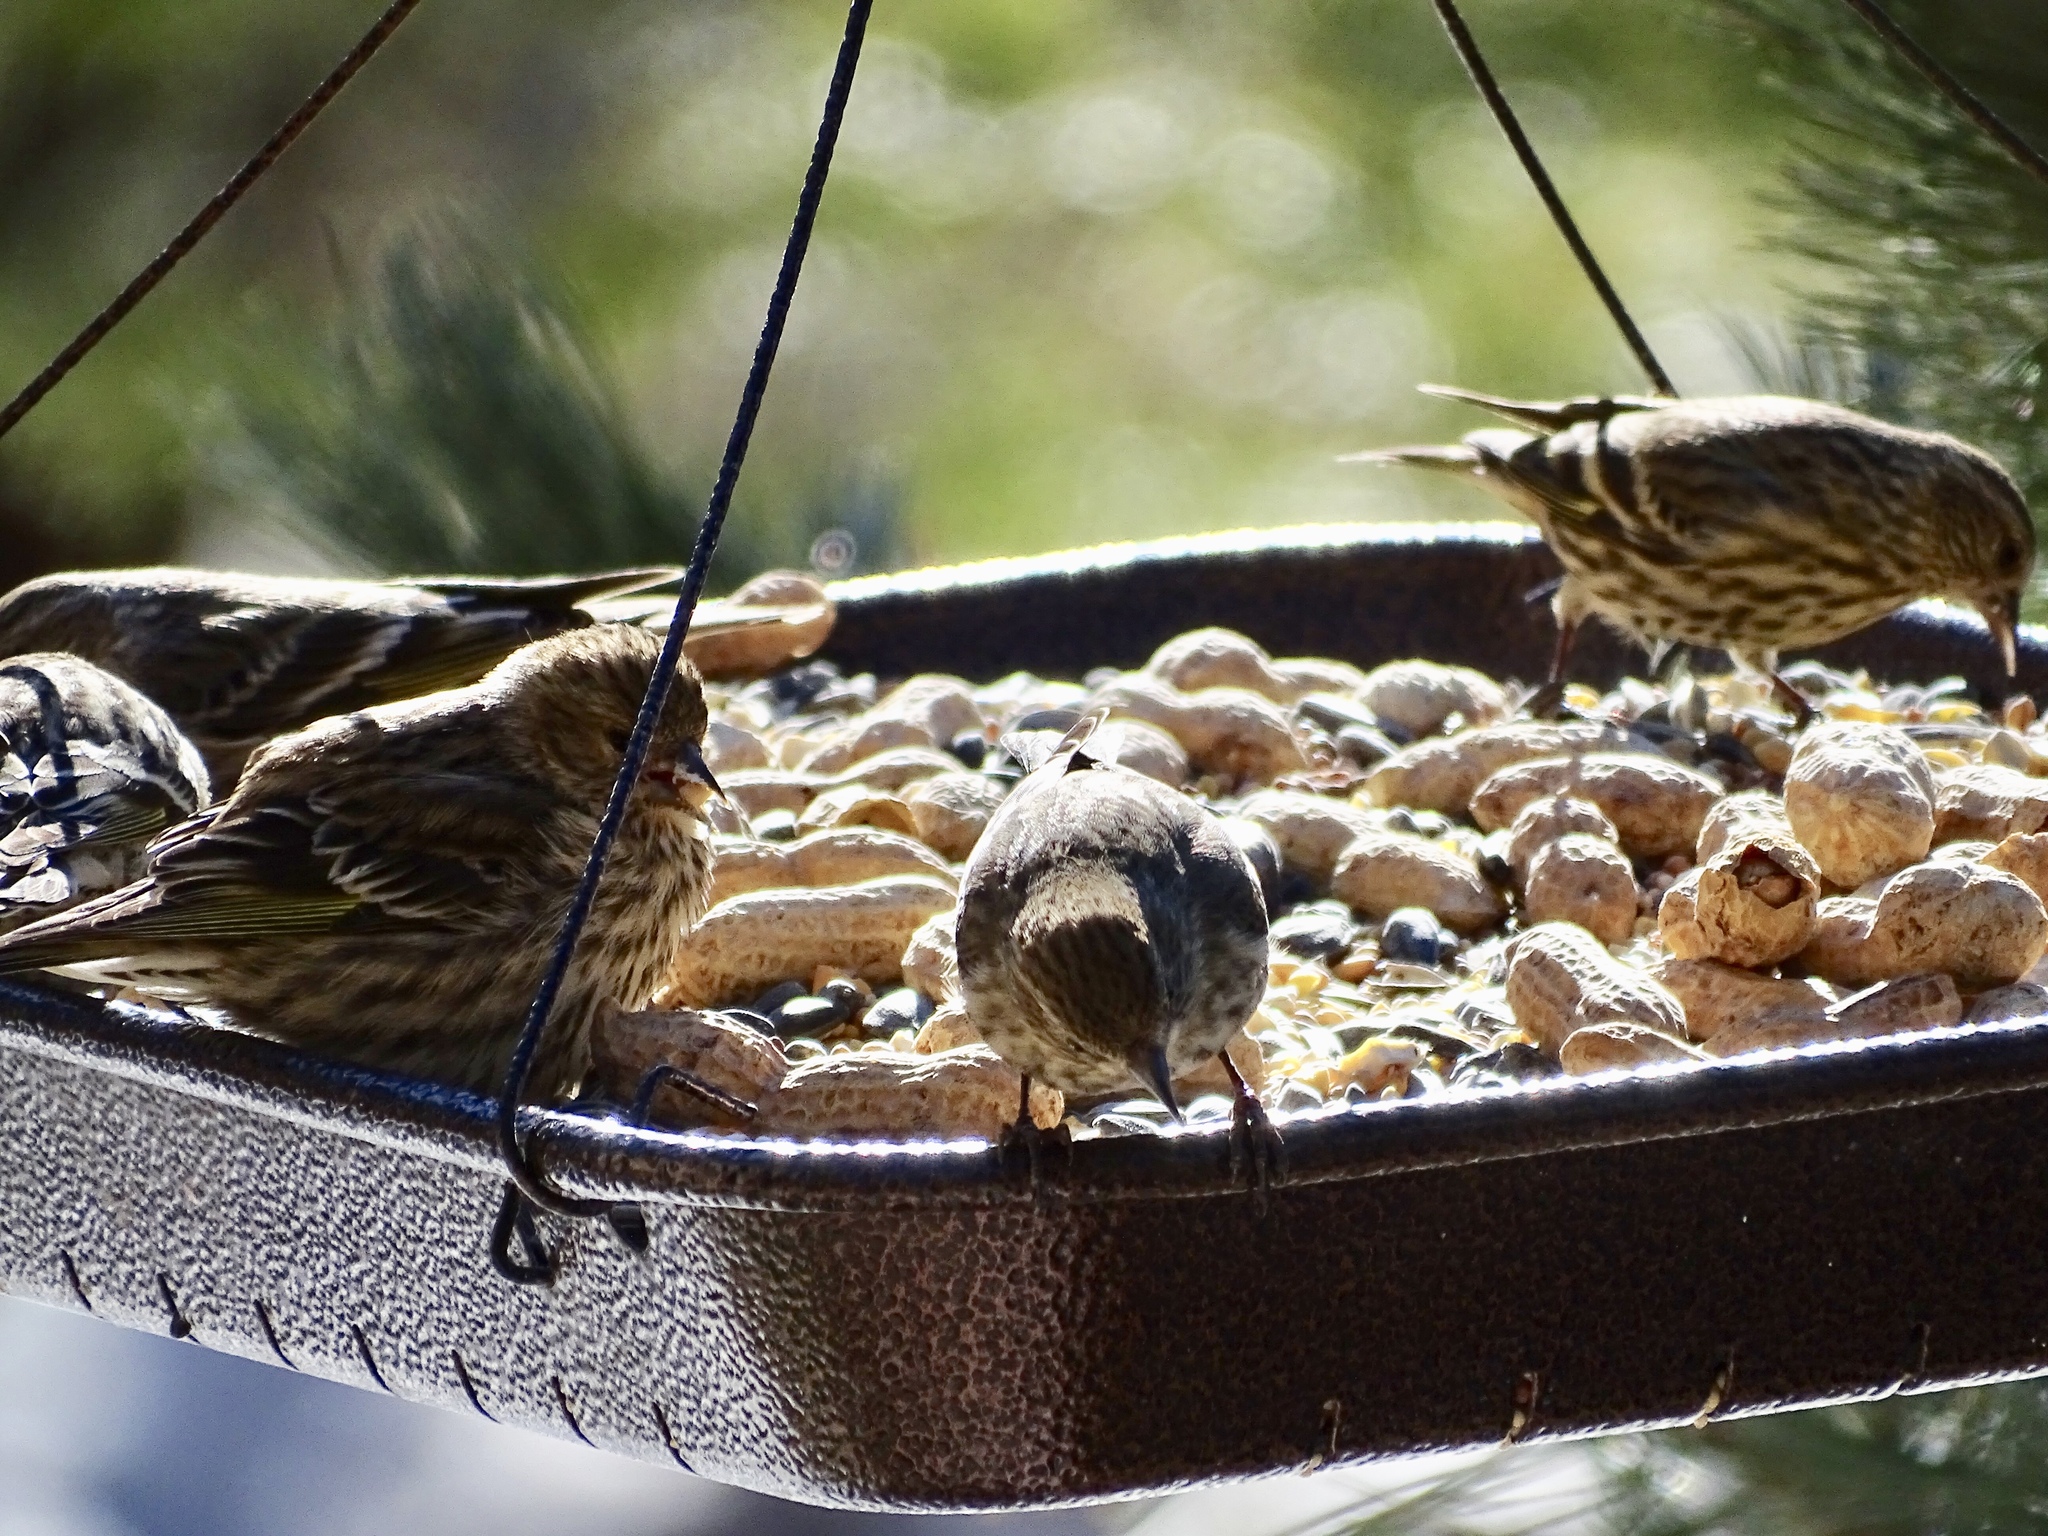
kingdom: Animalia
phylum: Chordata
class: Aves
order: Passeriformes
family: Fringillidae
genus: Spinus
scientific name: Spinus pinus
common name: Pine siskin
